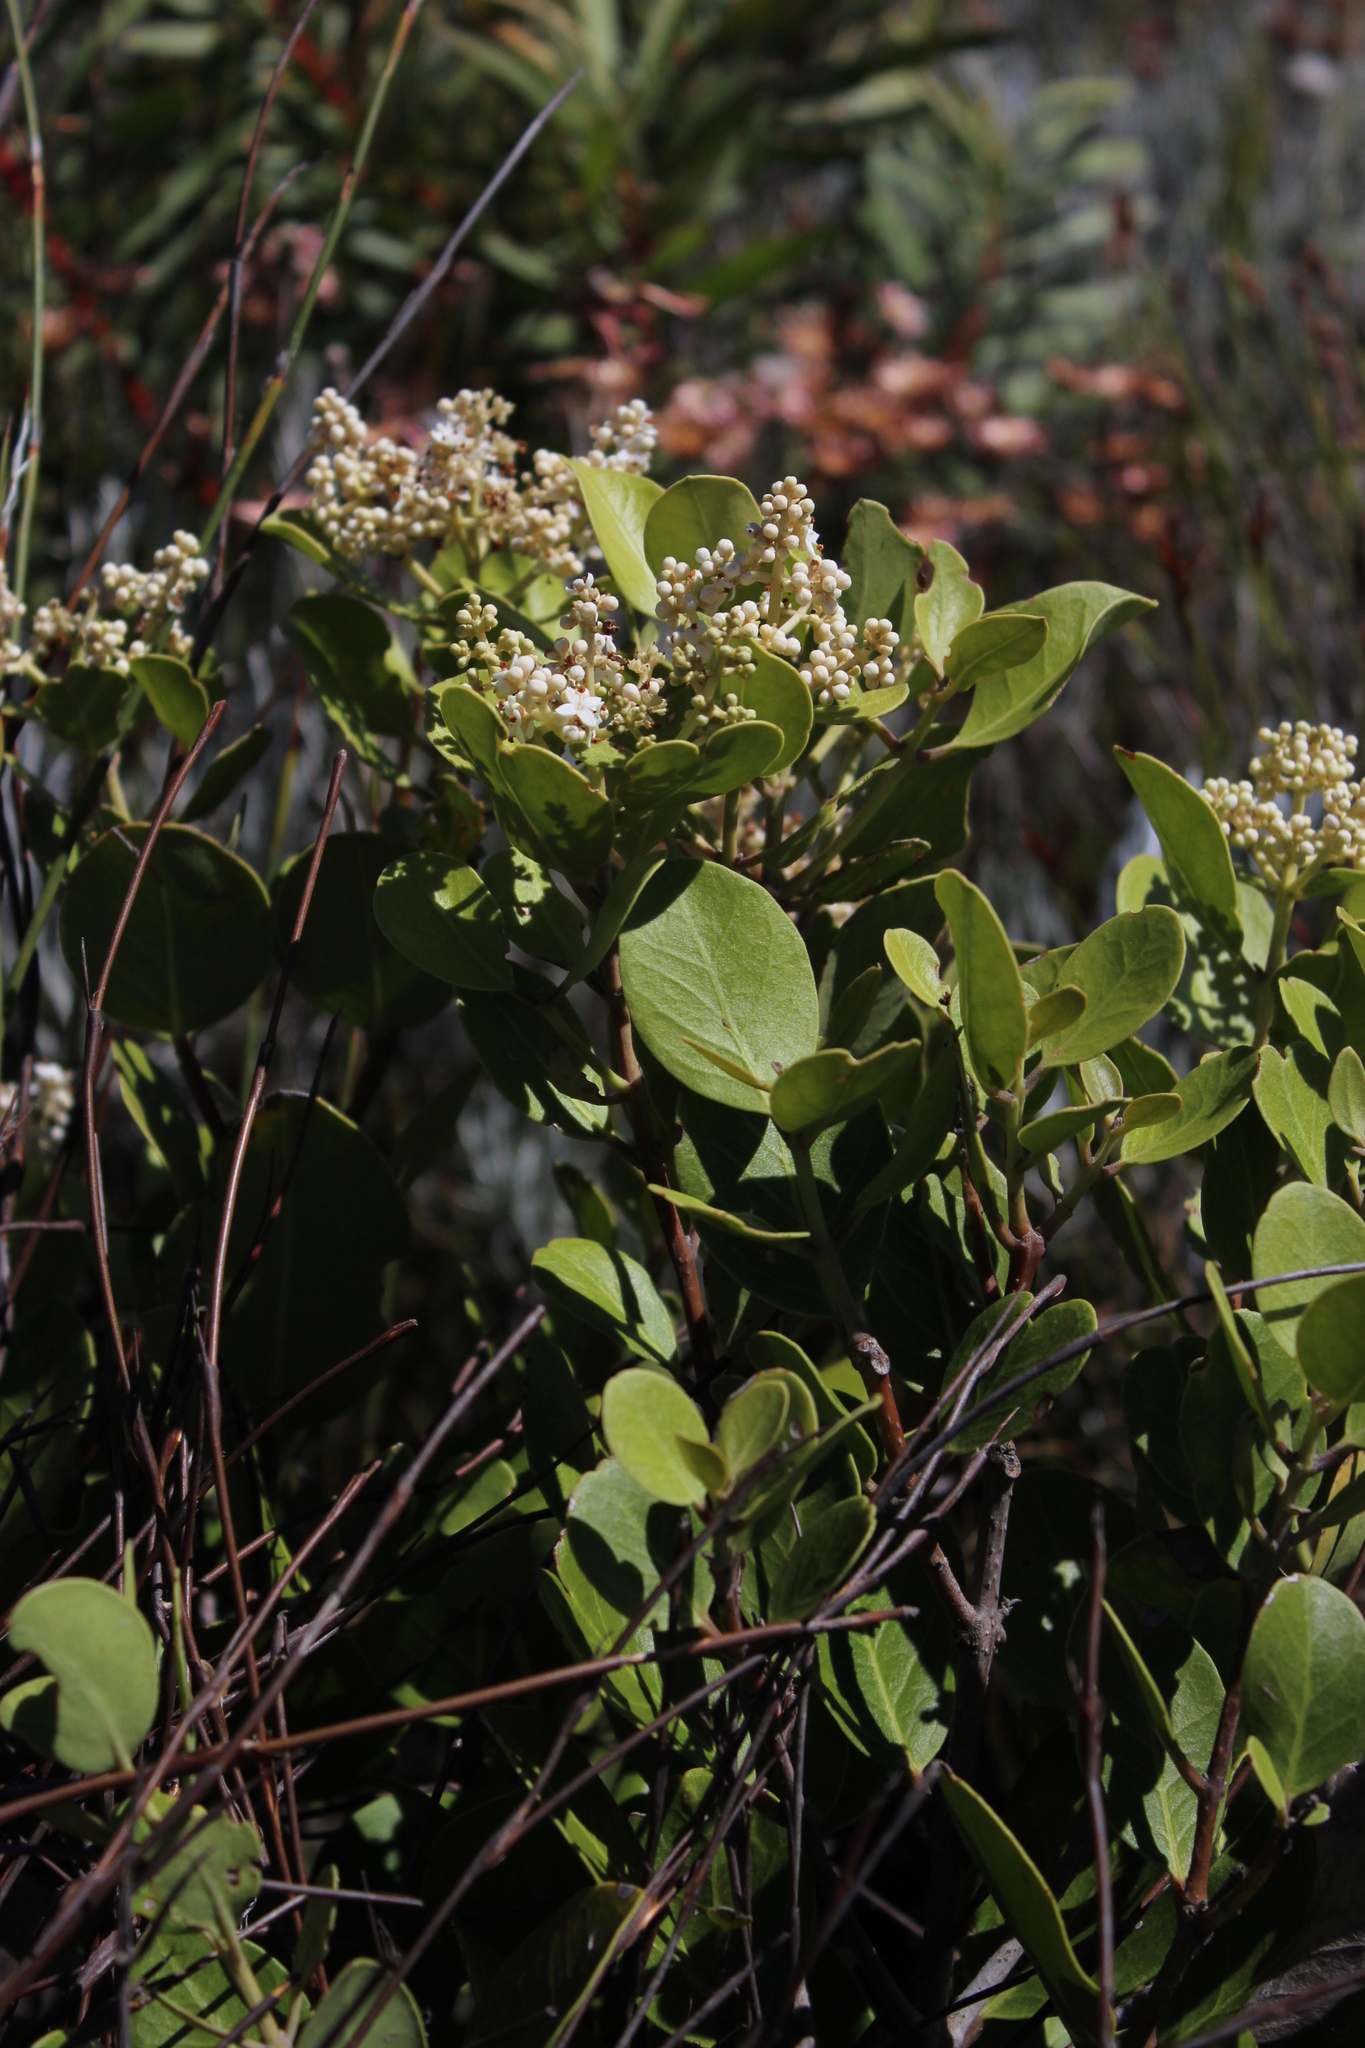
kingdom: Plantae
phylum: Tracheophyta
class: Magnoliopsida
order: Lamiales
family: Oleaceae
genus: Olea
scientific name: Olea capensis
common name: Black ironwood
